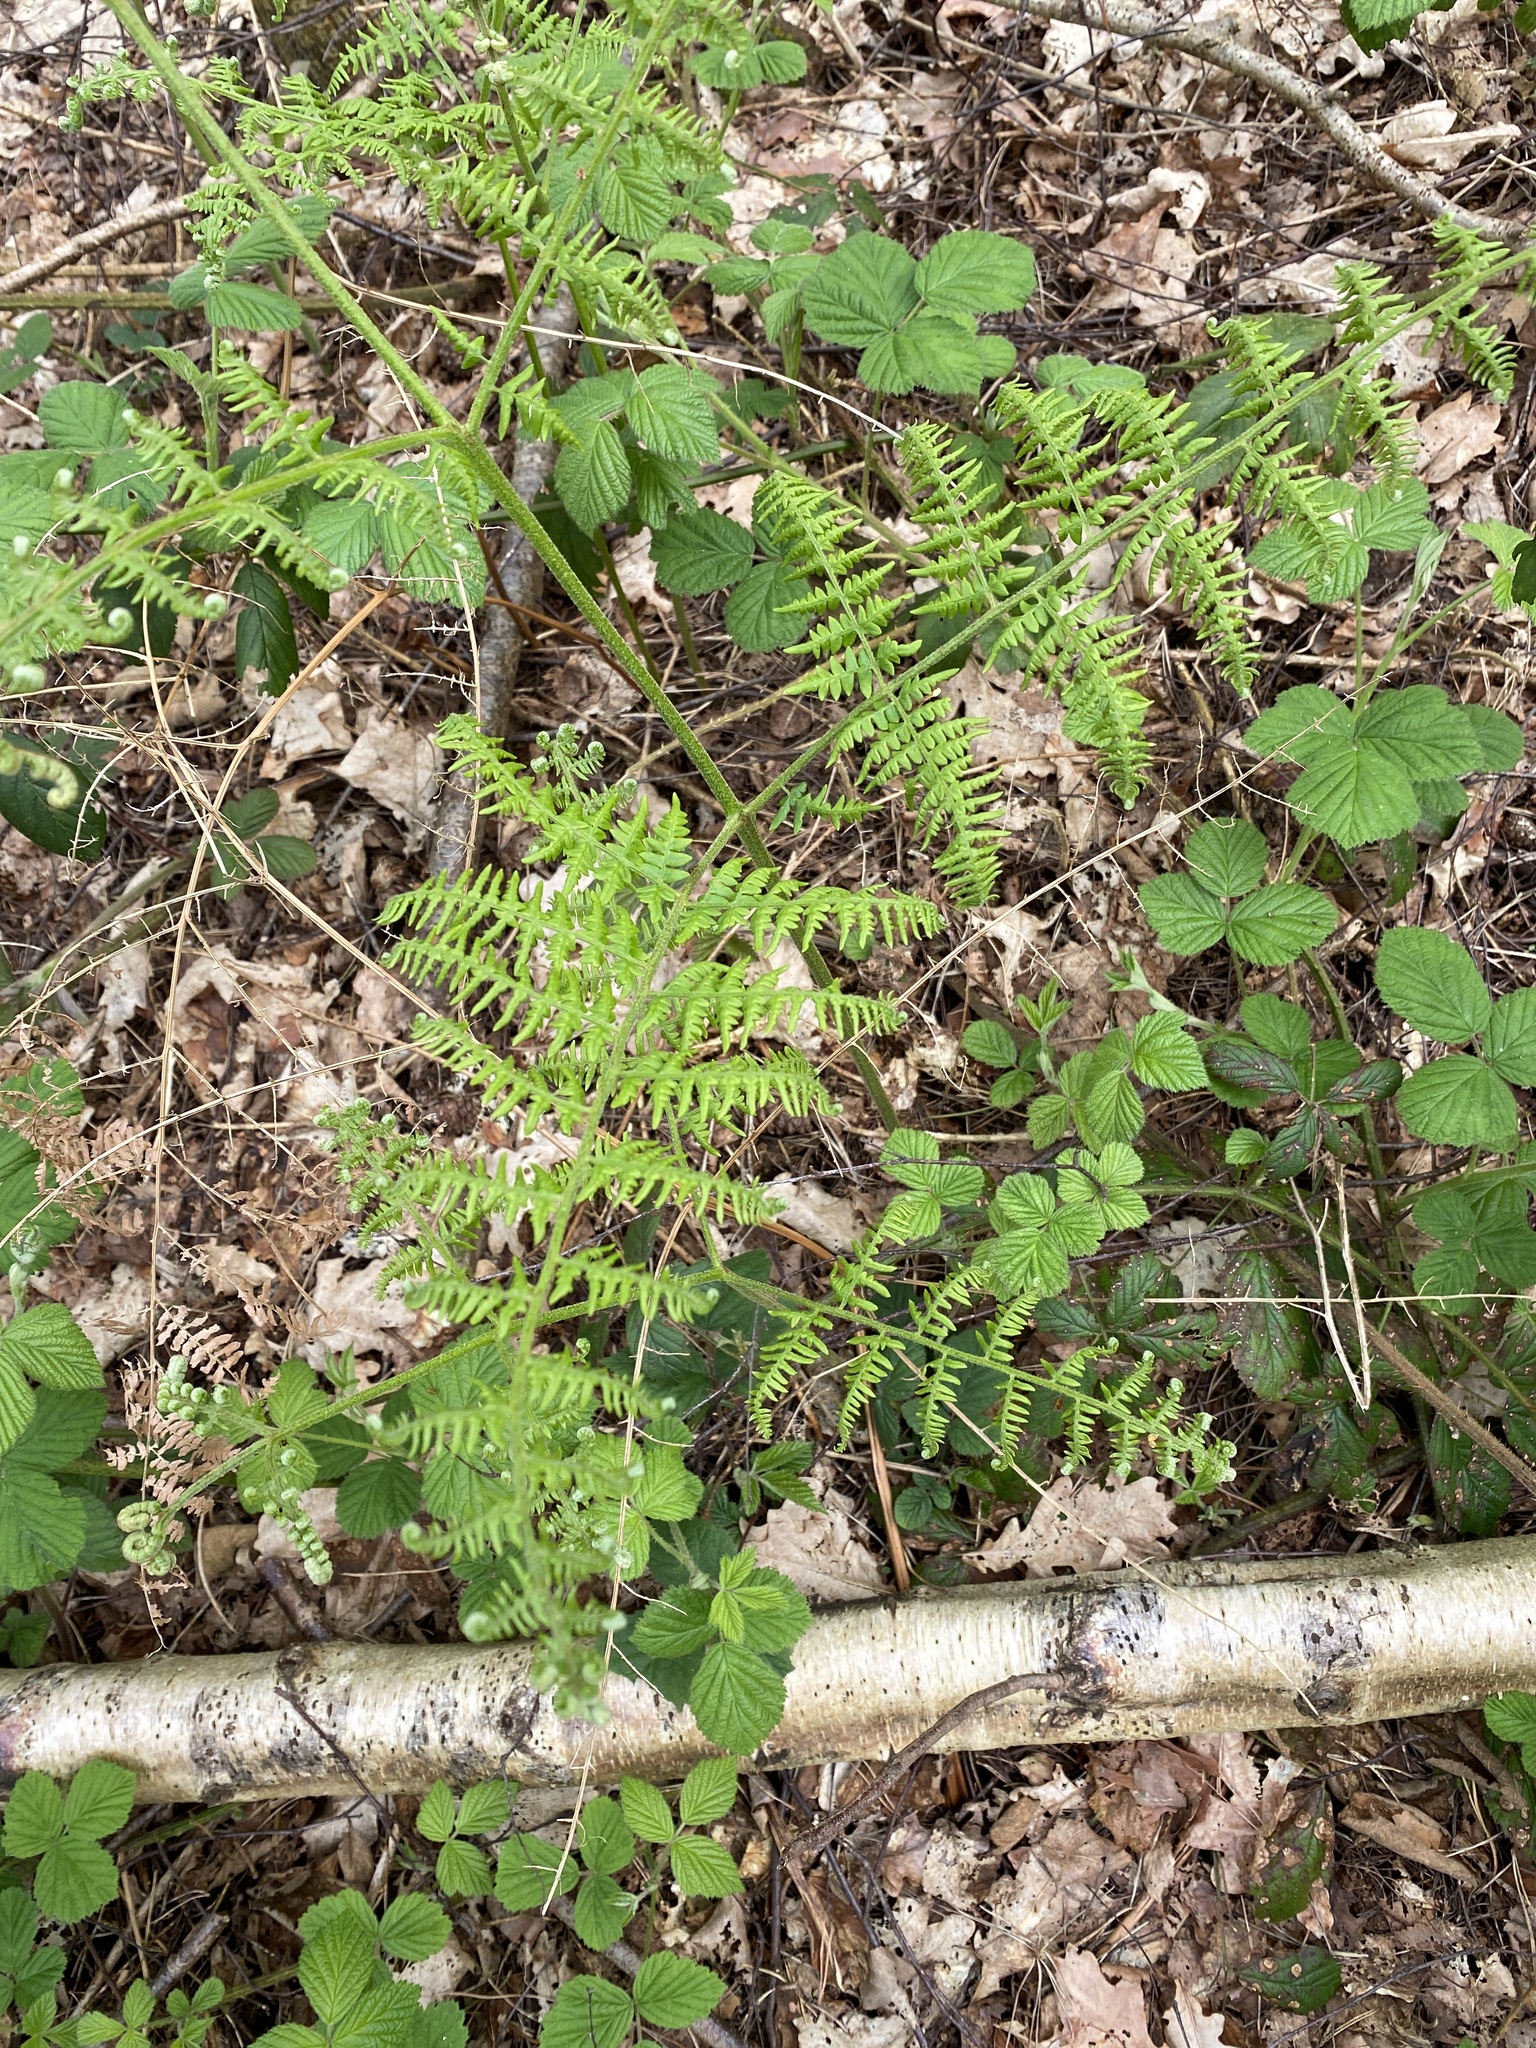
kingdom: Plantae
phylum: Tracheophyta
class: Polypodiopsida
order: Polypodiales
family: Dennstaedtiaceae
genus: Pteridium
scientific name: Pteridium aquilinum
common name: Bracken
